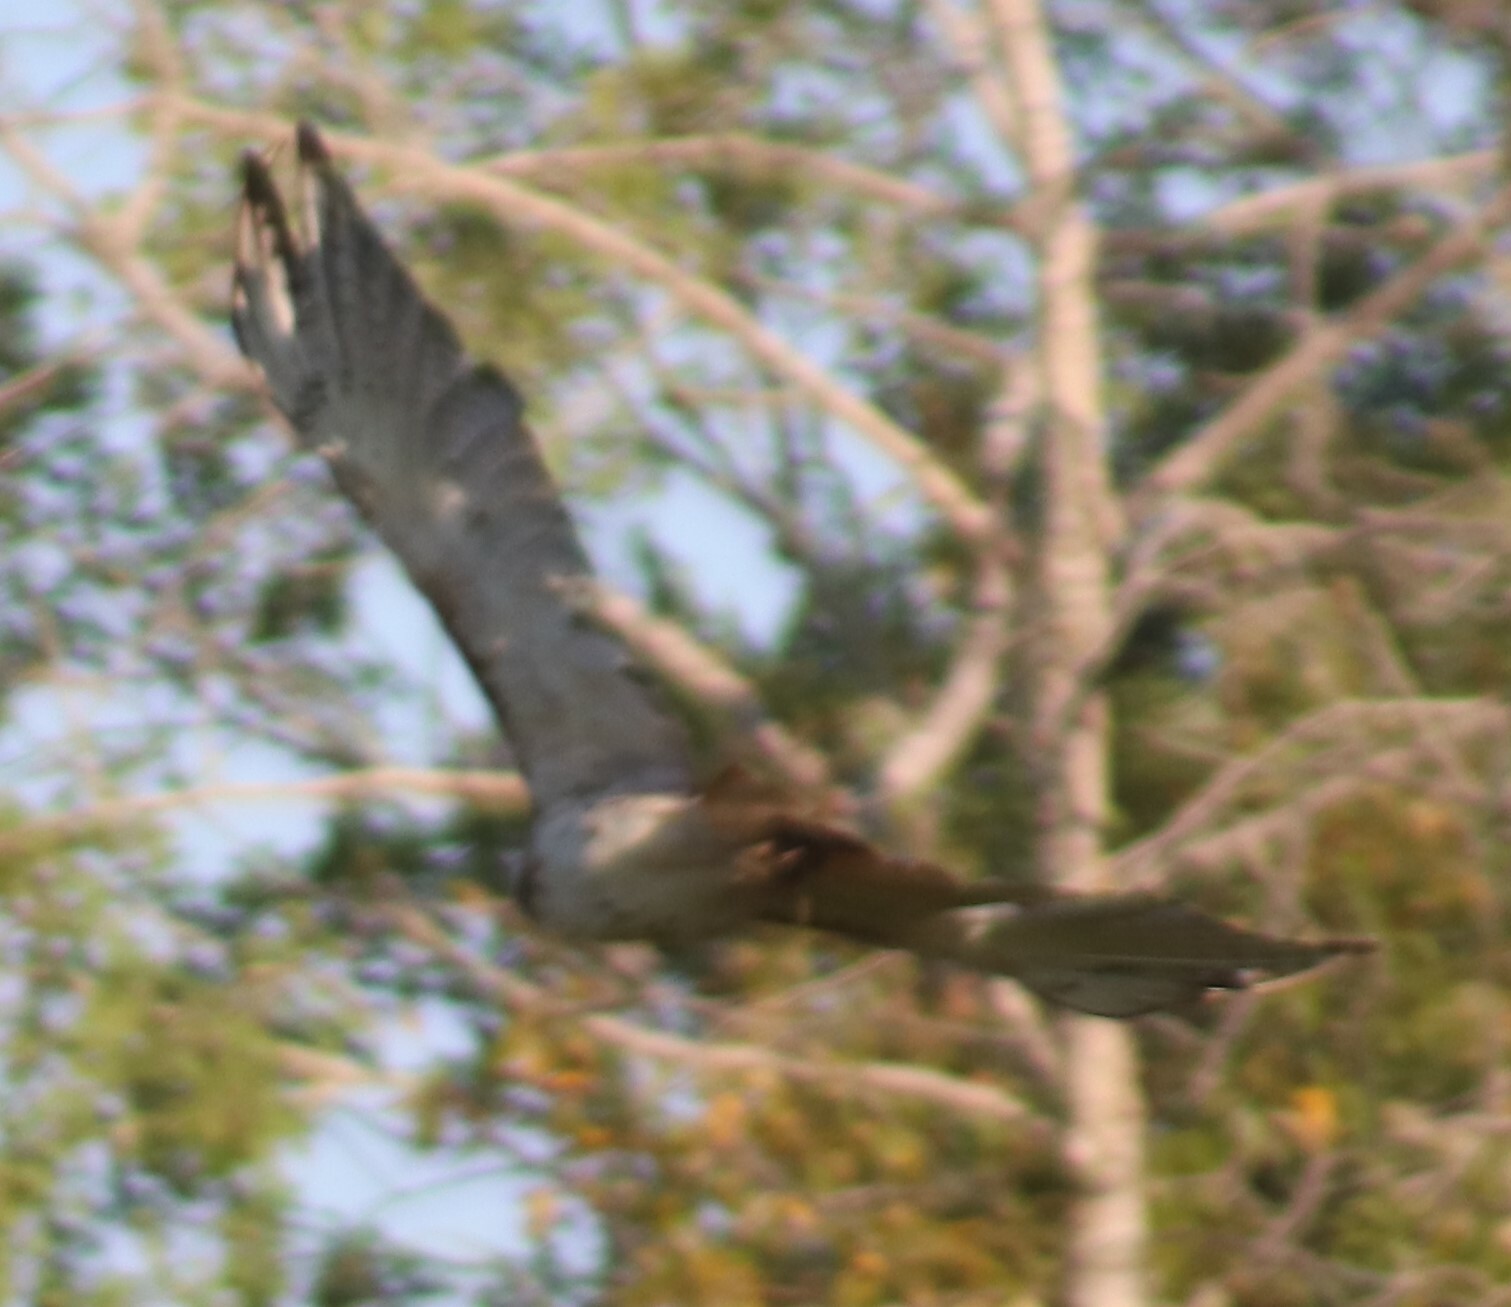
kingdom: Animalia
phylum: Chordata
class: Aves
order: Accipitriformes
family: Accipitridae
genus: Buteo
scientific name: Buteo jamaicensis
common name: Red-tailed hawk
